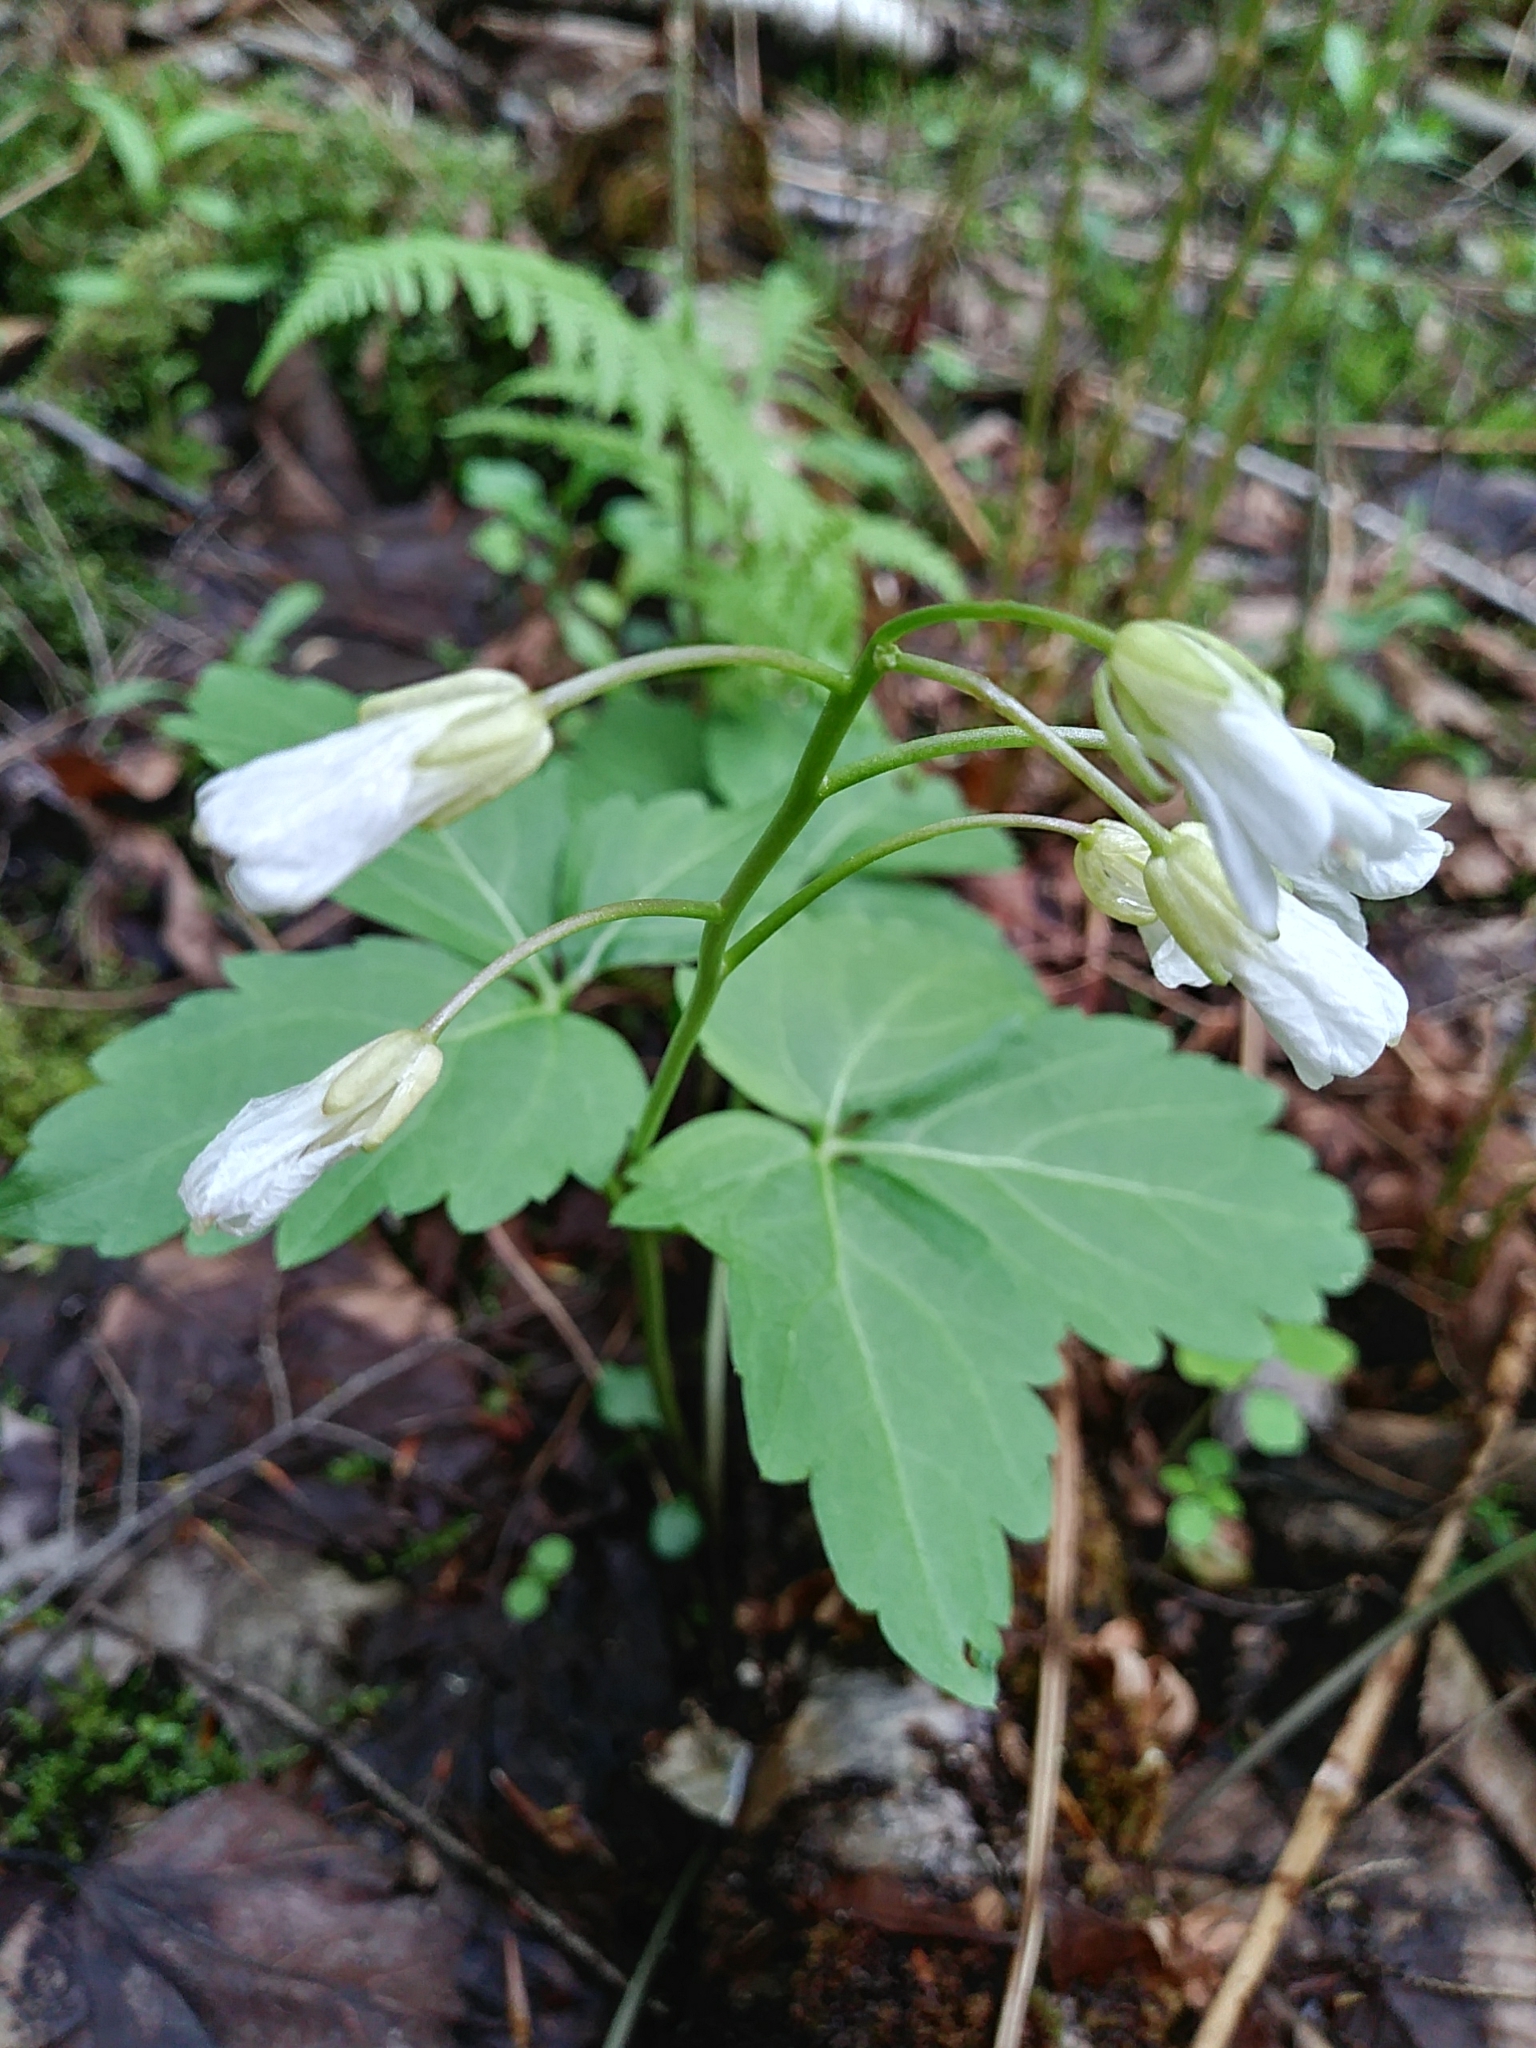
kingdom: Plantae
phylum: Tracheophyta
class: Magnoliopsida
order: Brassicales
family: Brassicaceae
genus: Cardamine
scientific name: Cardamine diphylla
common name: Broad-leaved toothwort
